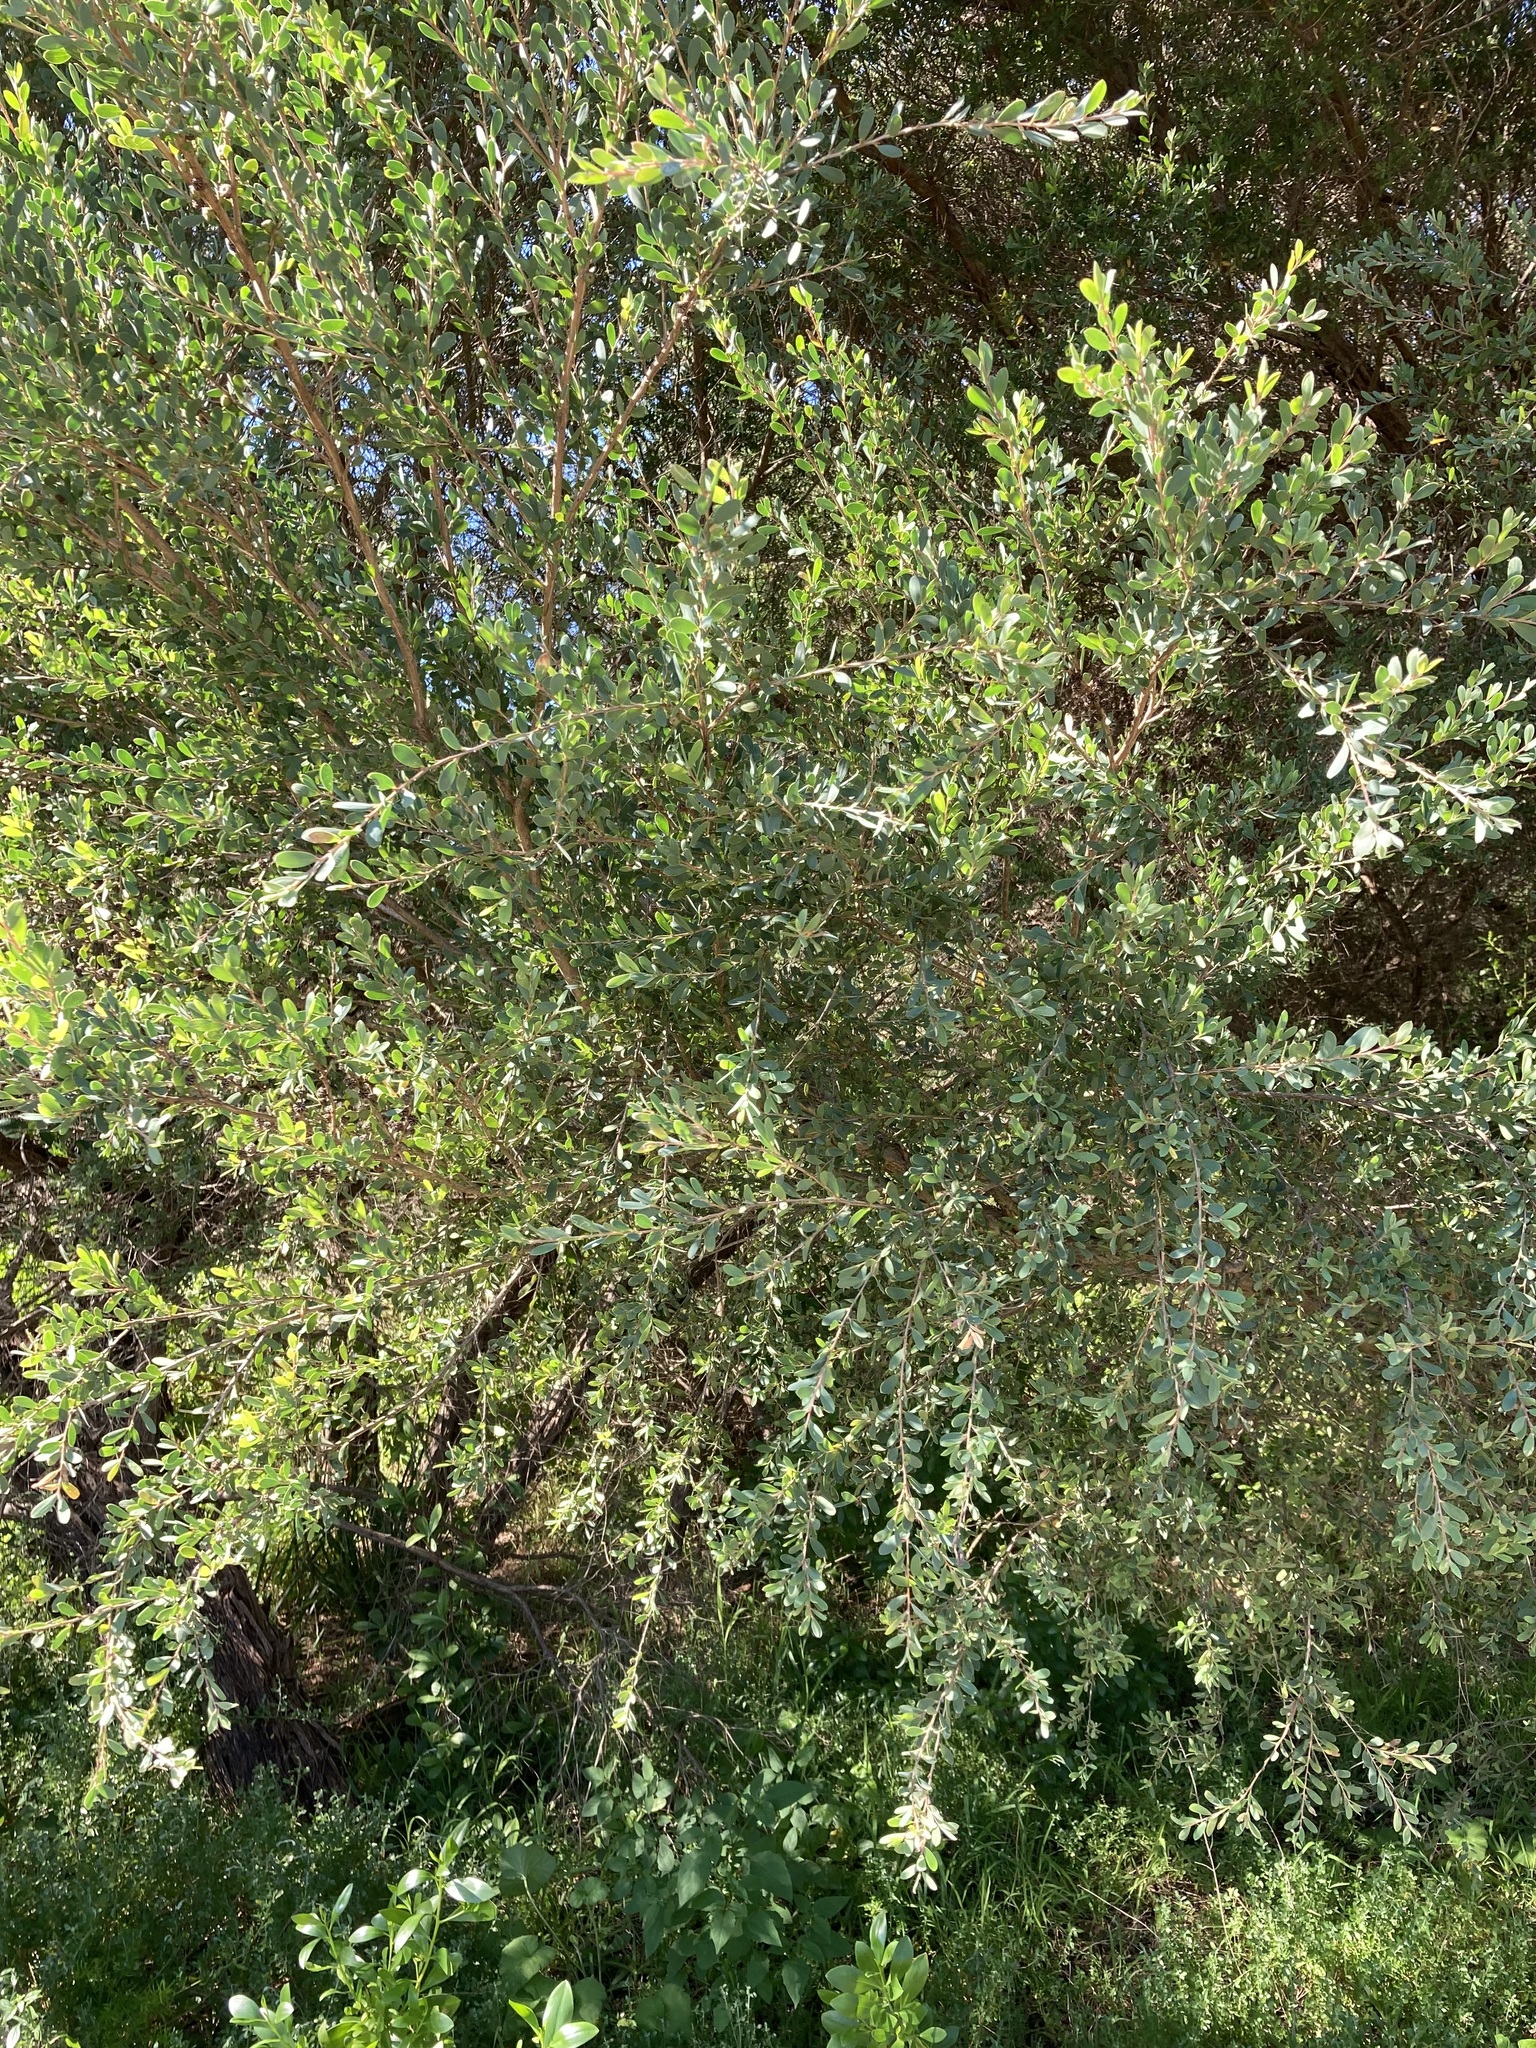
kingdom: Plantae
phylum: Tracheophyta
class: Magnoliopsida
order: Myrtales
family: Myrtaceae
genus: Leptospermum
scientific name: Leptospermum laevigatum
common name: Australian teatree
